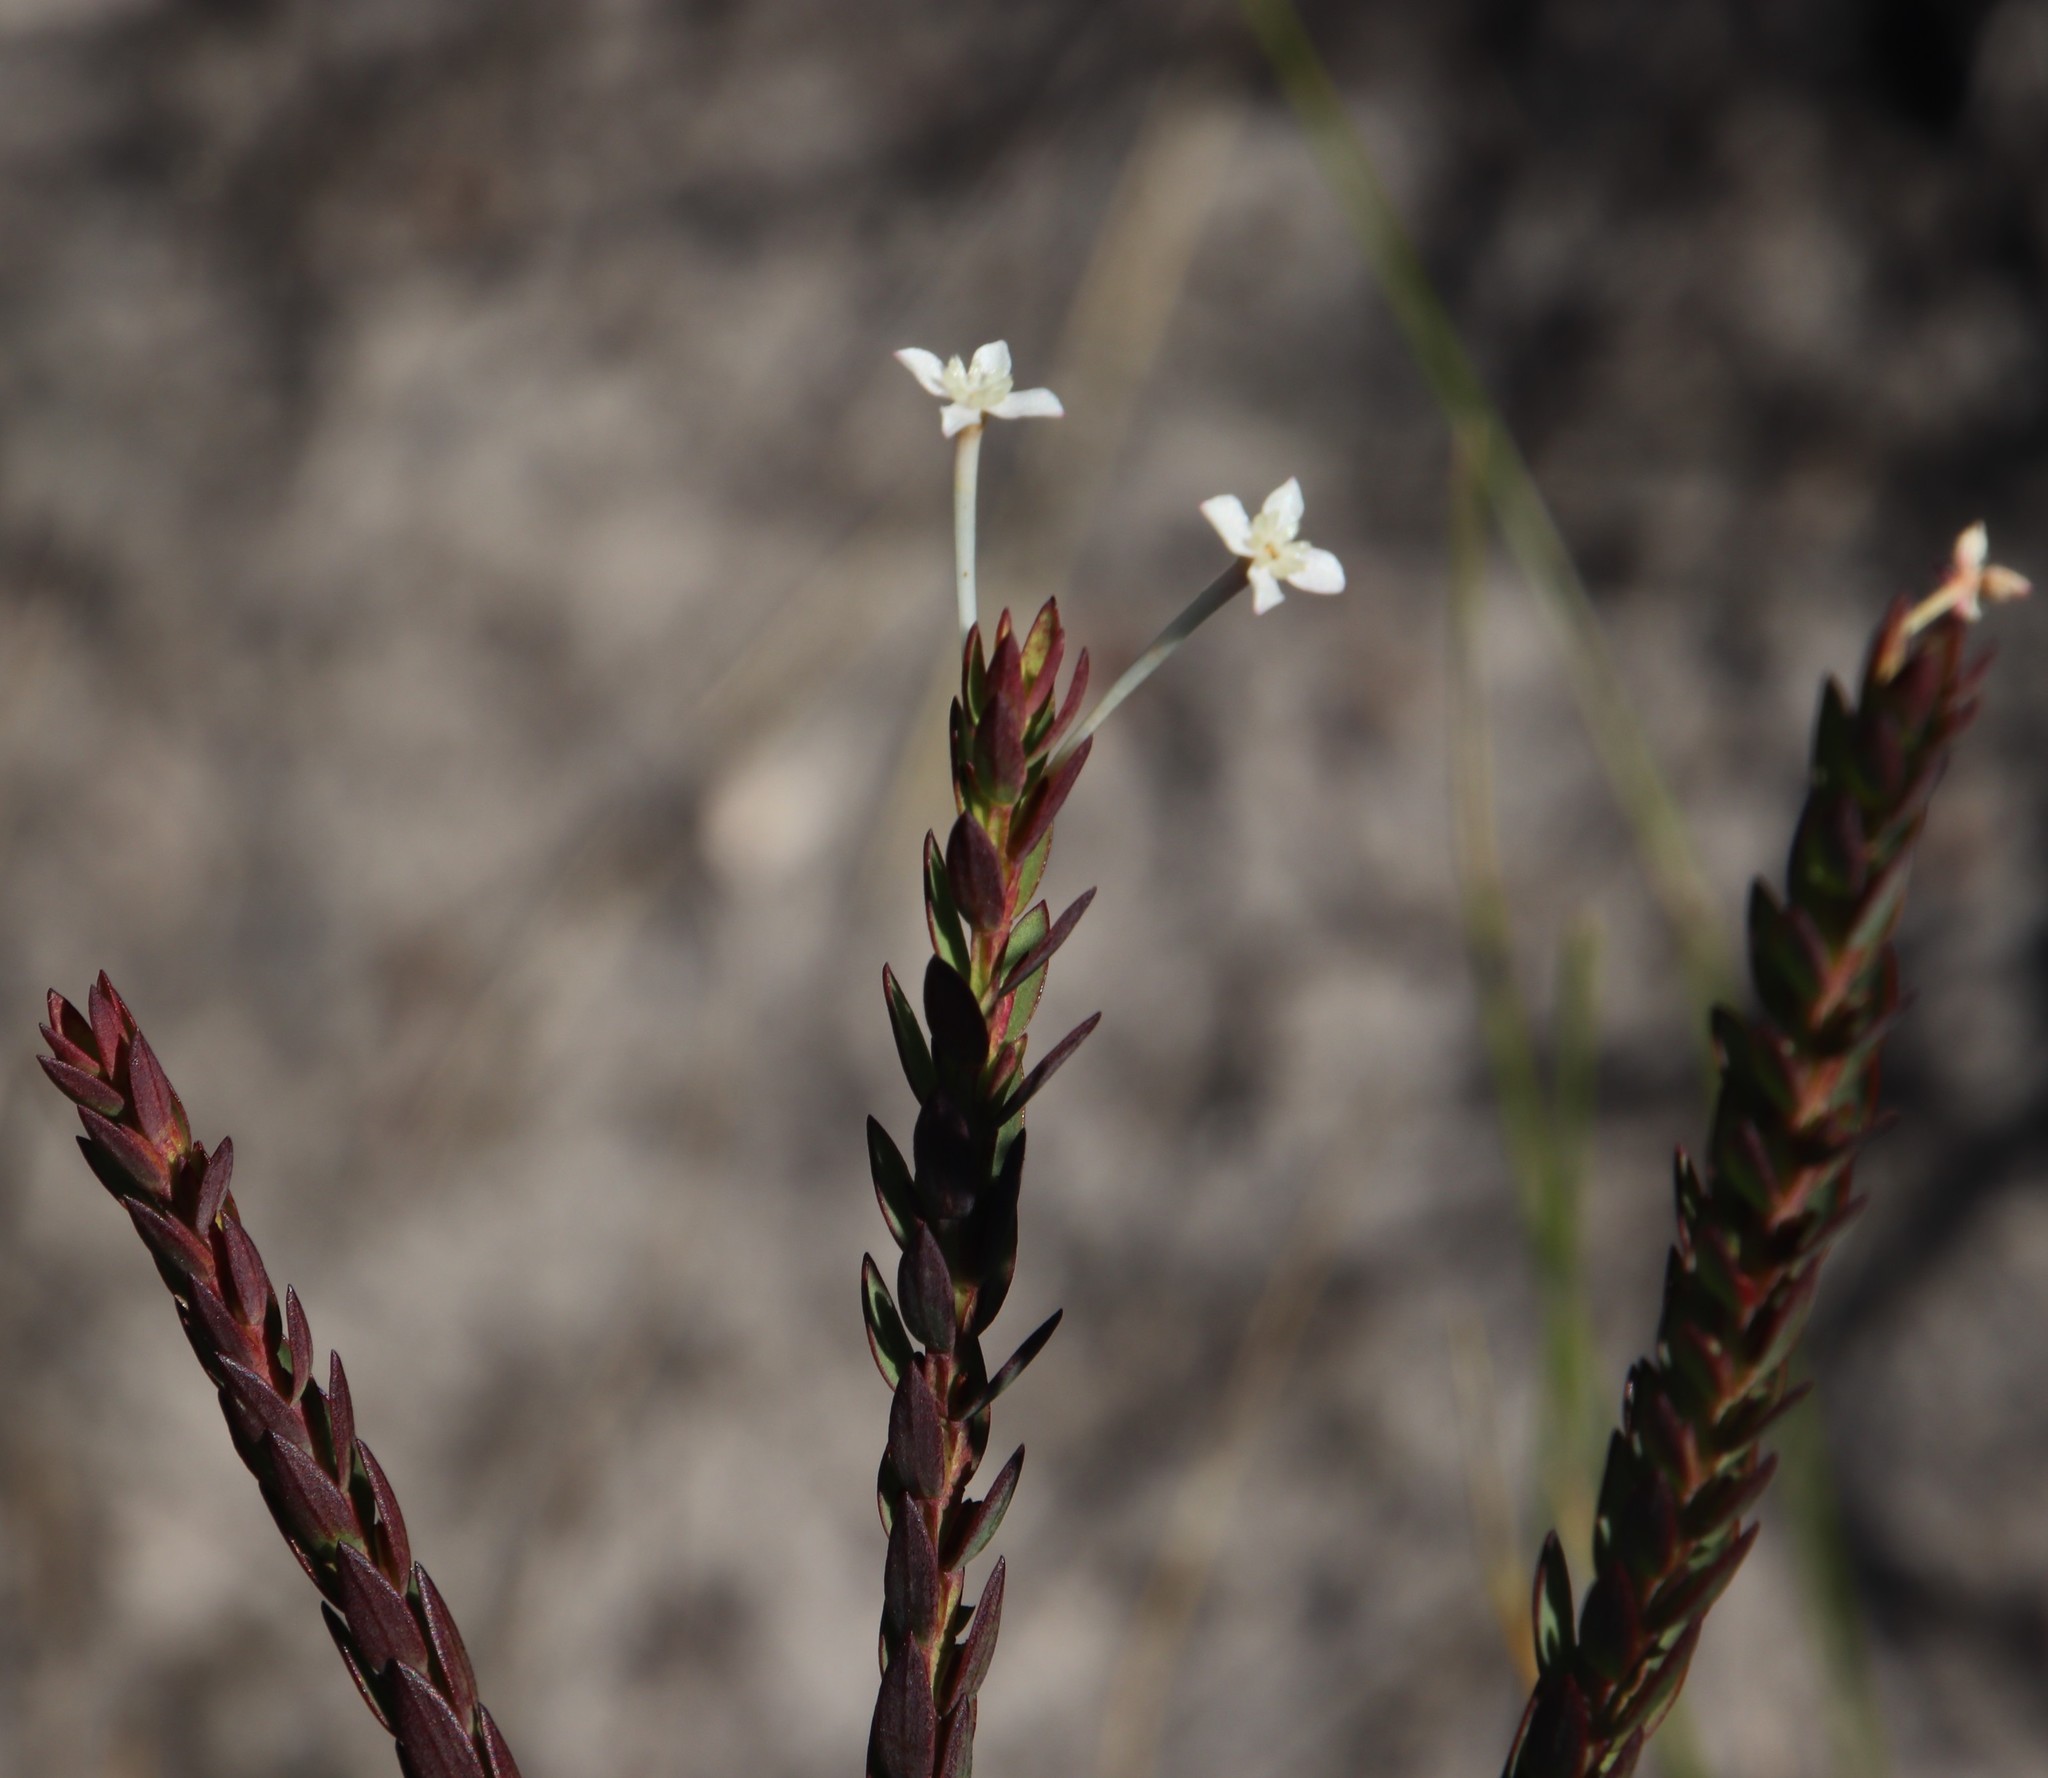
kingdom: Plantae
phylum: Tracheophyta
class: Magnoliopsida
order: Malvales
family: Thymelaeaceae
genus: Struthiola
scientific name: Struthiola dodecandra
